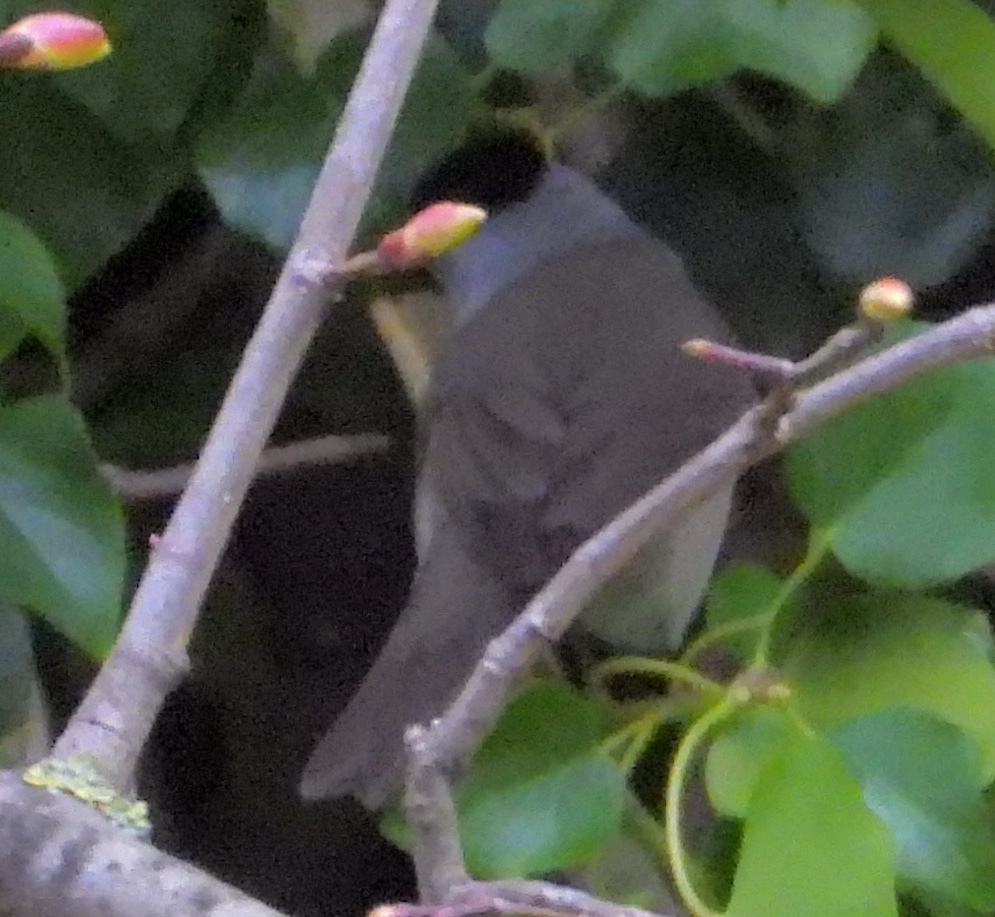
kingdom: Animalia
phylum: Chordata
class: Aves
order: Passeriformes
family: Sylviidae
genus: Sylvia
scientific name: Sylvia atricapilla
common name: Eurasian blackcap
